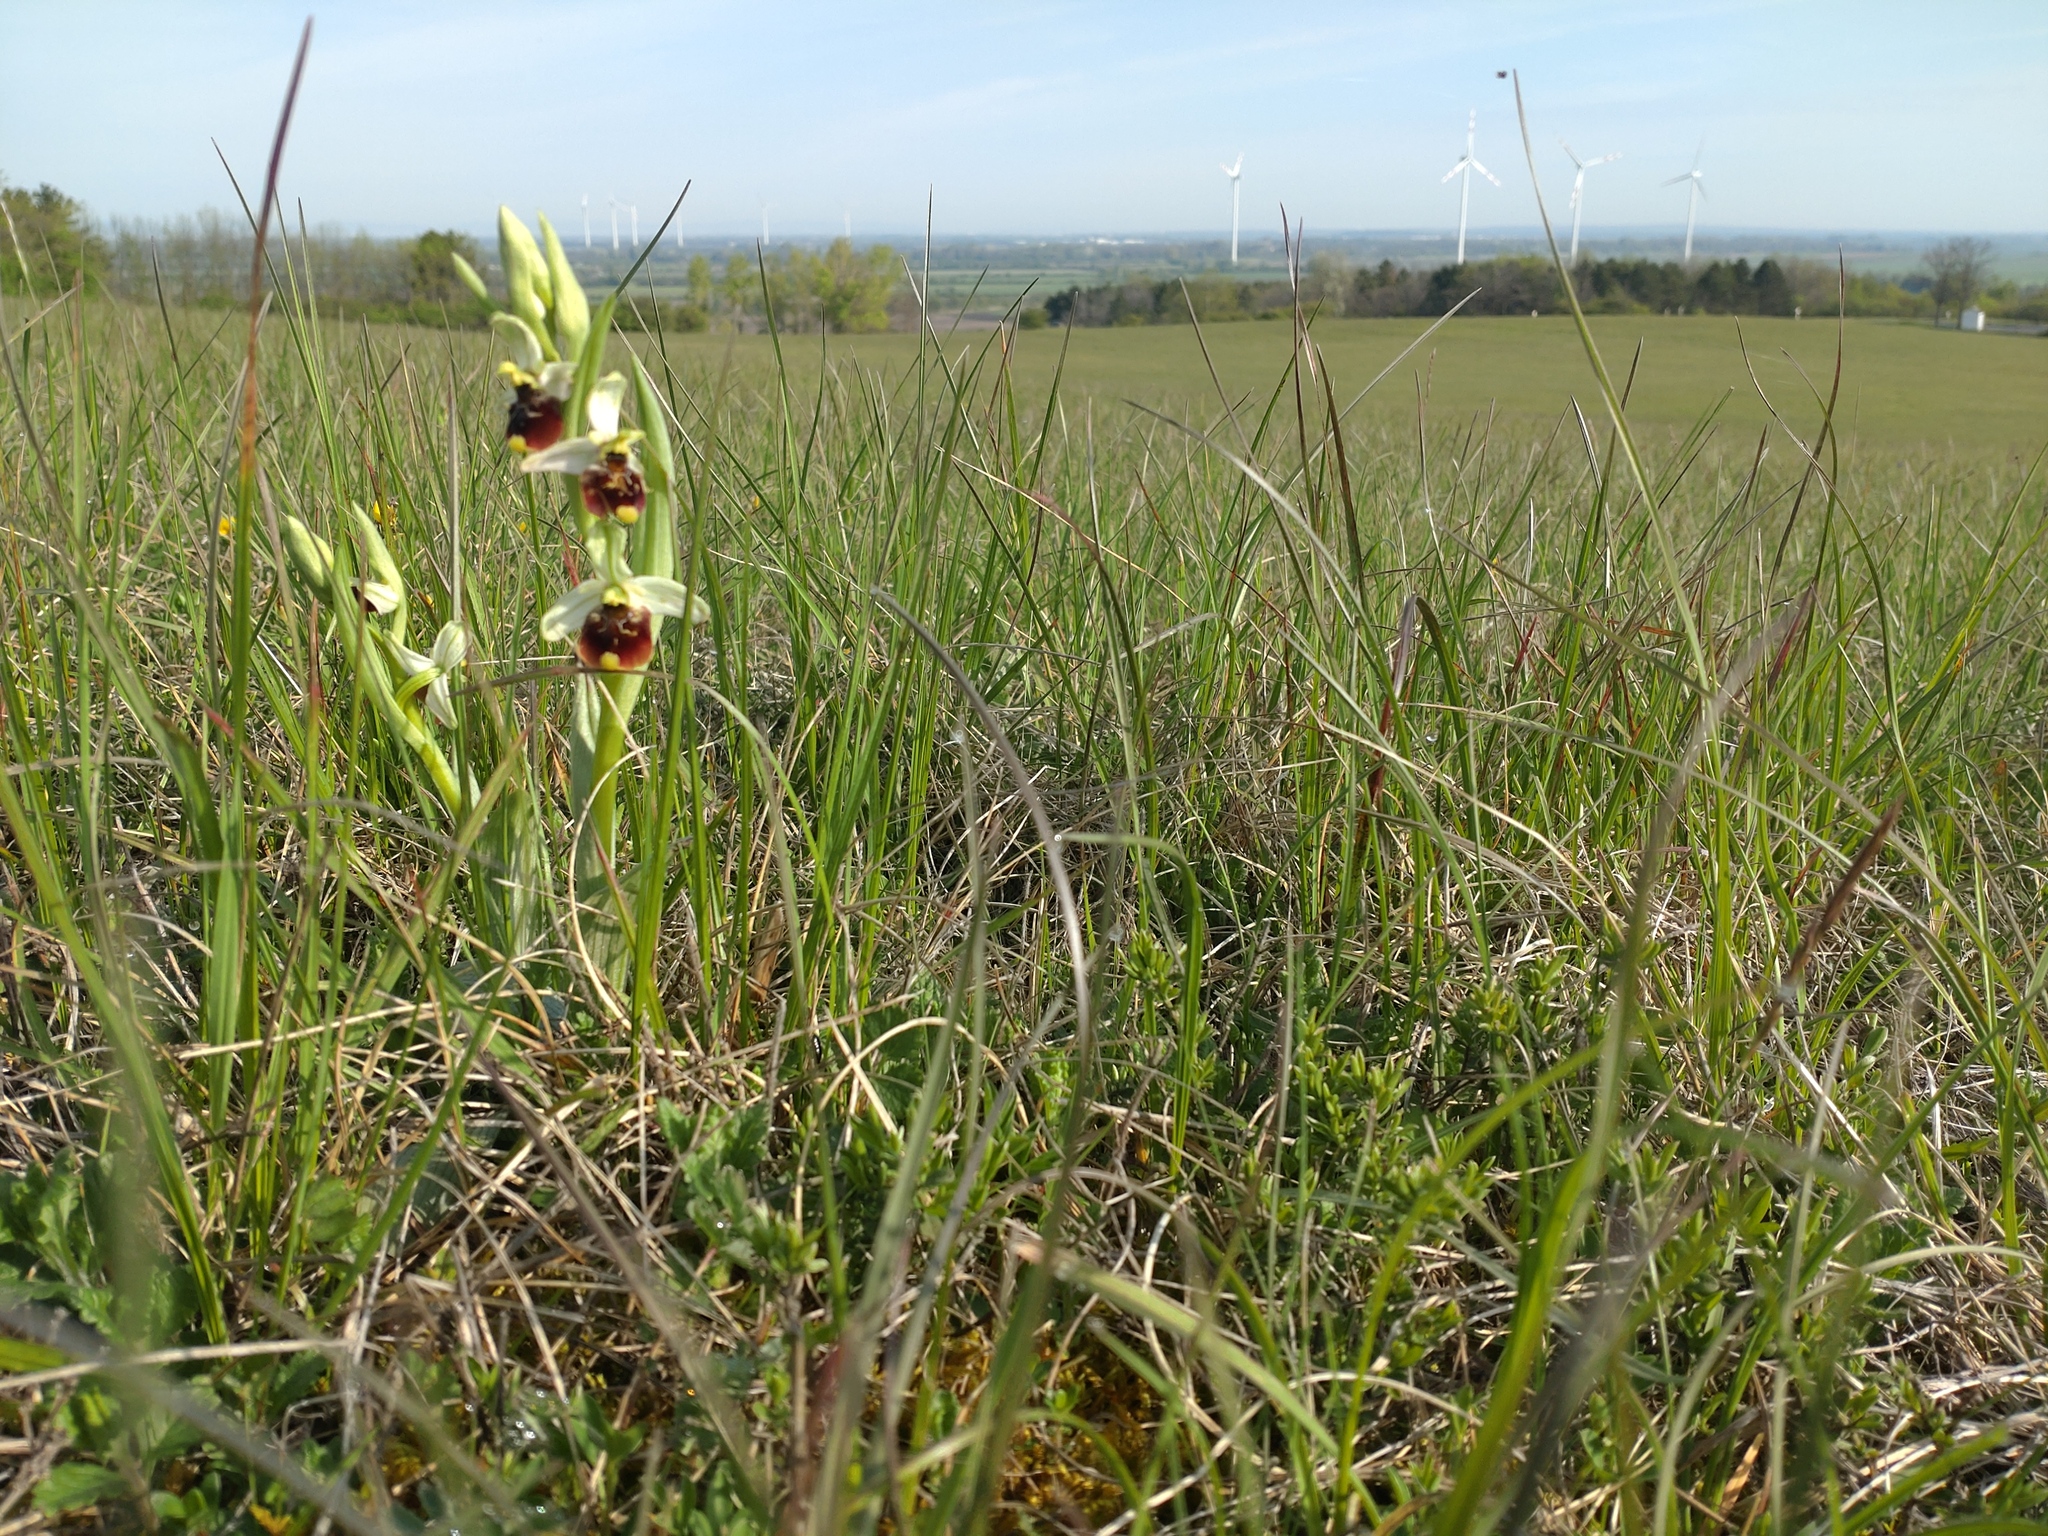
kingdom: Plantae
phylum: Tracheophyta
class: Liliopsida
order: Asparagales
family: Orchidaceae
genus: Ophrys
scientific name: Ophrys holosericea
